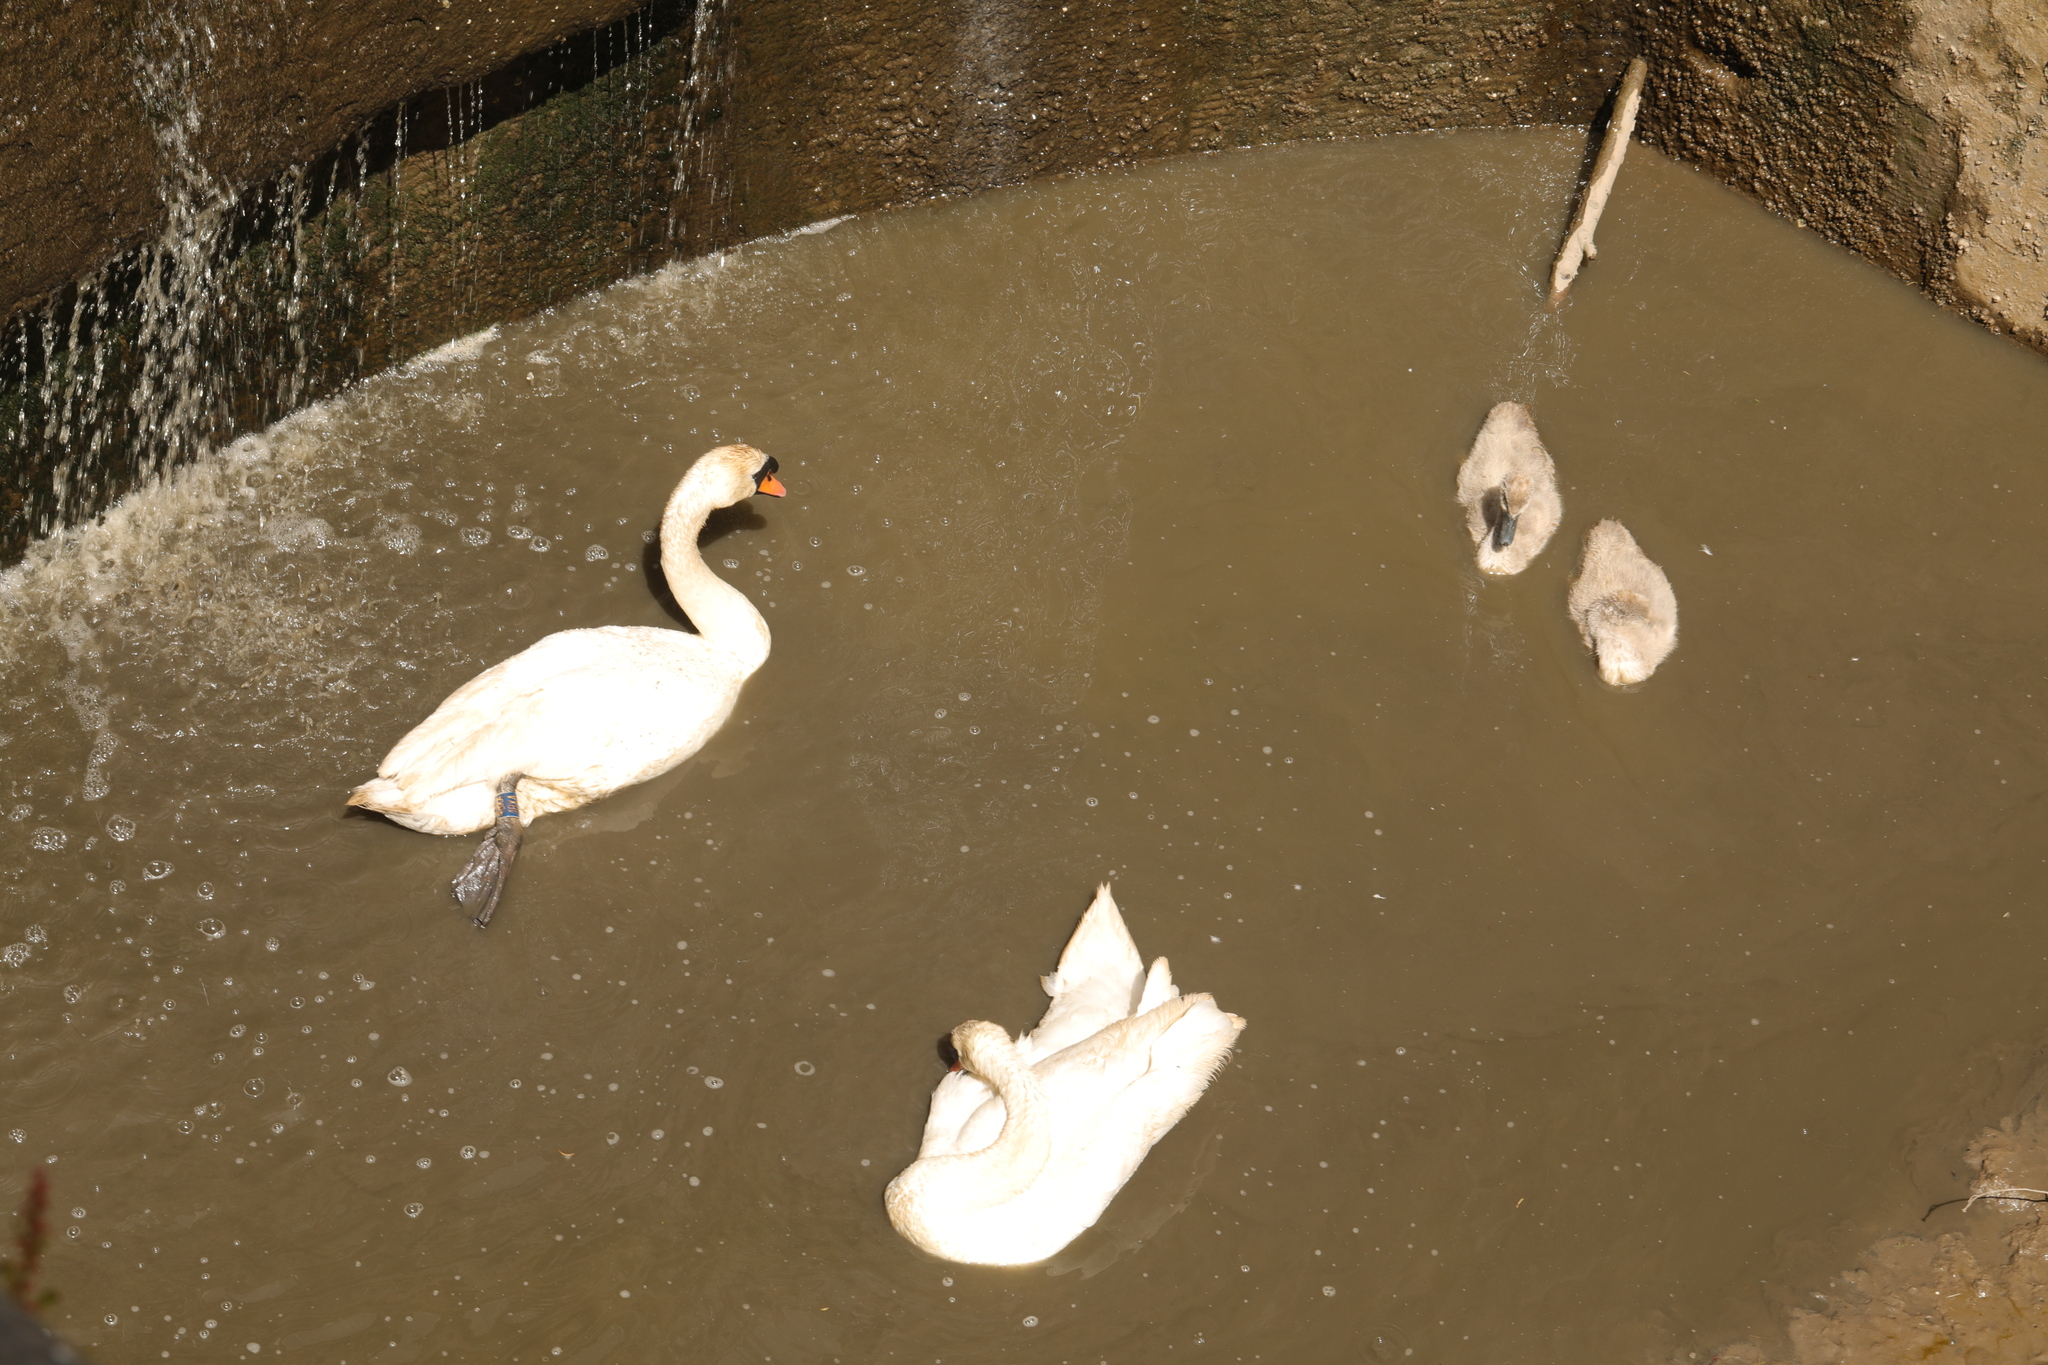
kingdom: Animalia
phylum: Chordata
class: Aves
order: Anseriformes
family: Anatidae
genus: Cygnus
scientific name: Cygnus olor
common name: Mute swan
